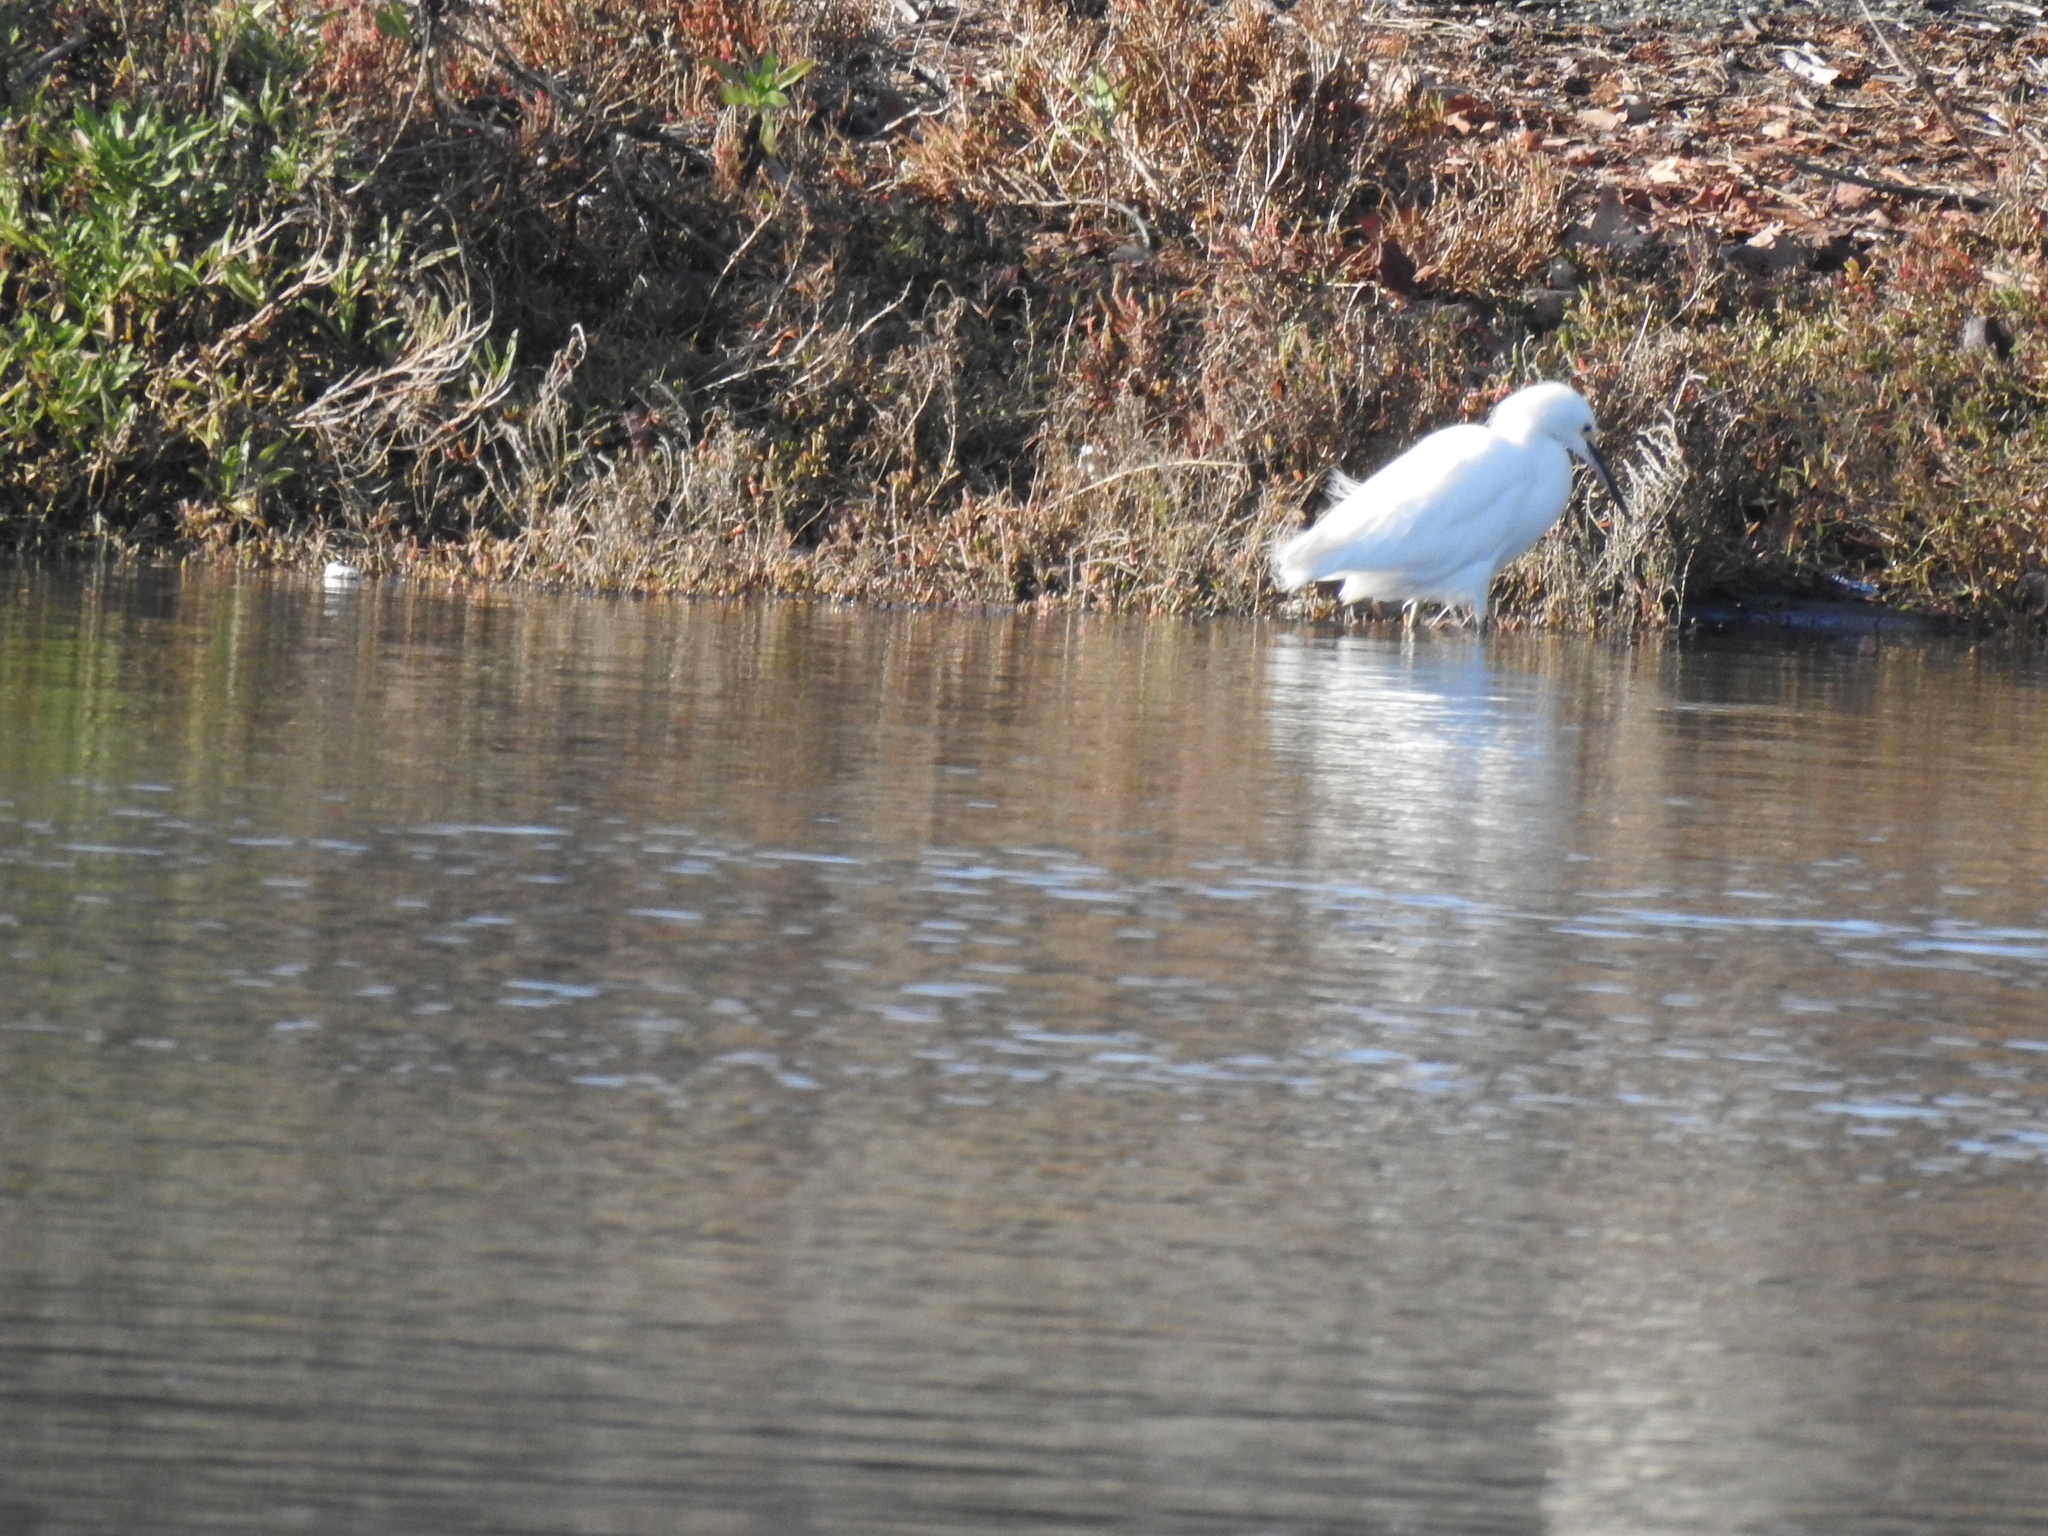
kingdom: Animalia
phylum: Chordata
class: Aves
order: Pelecaniformes
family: Ardeidae
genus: Egretta
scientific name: Egretta thula
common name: Snowy egret
